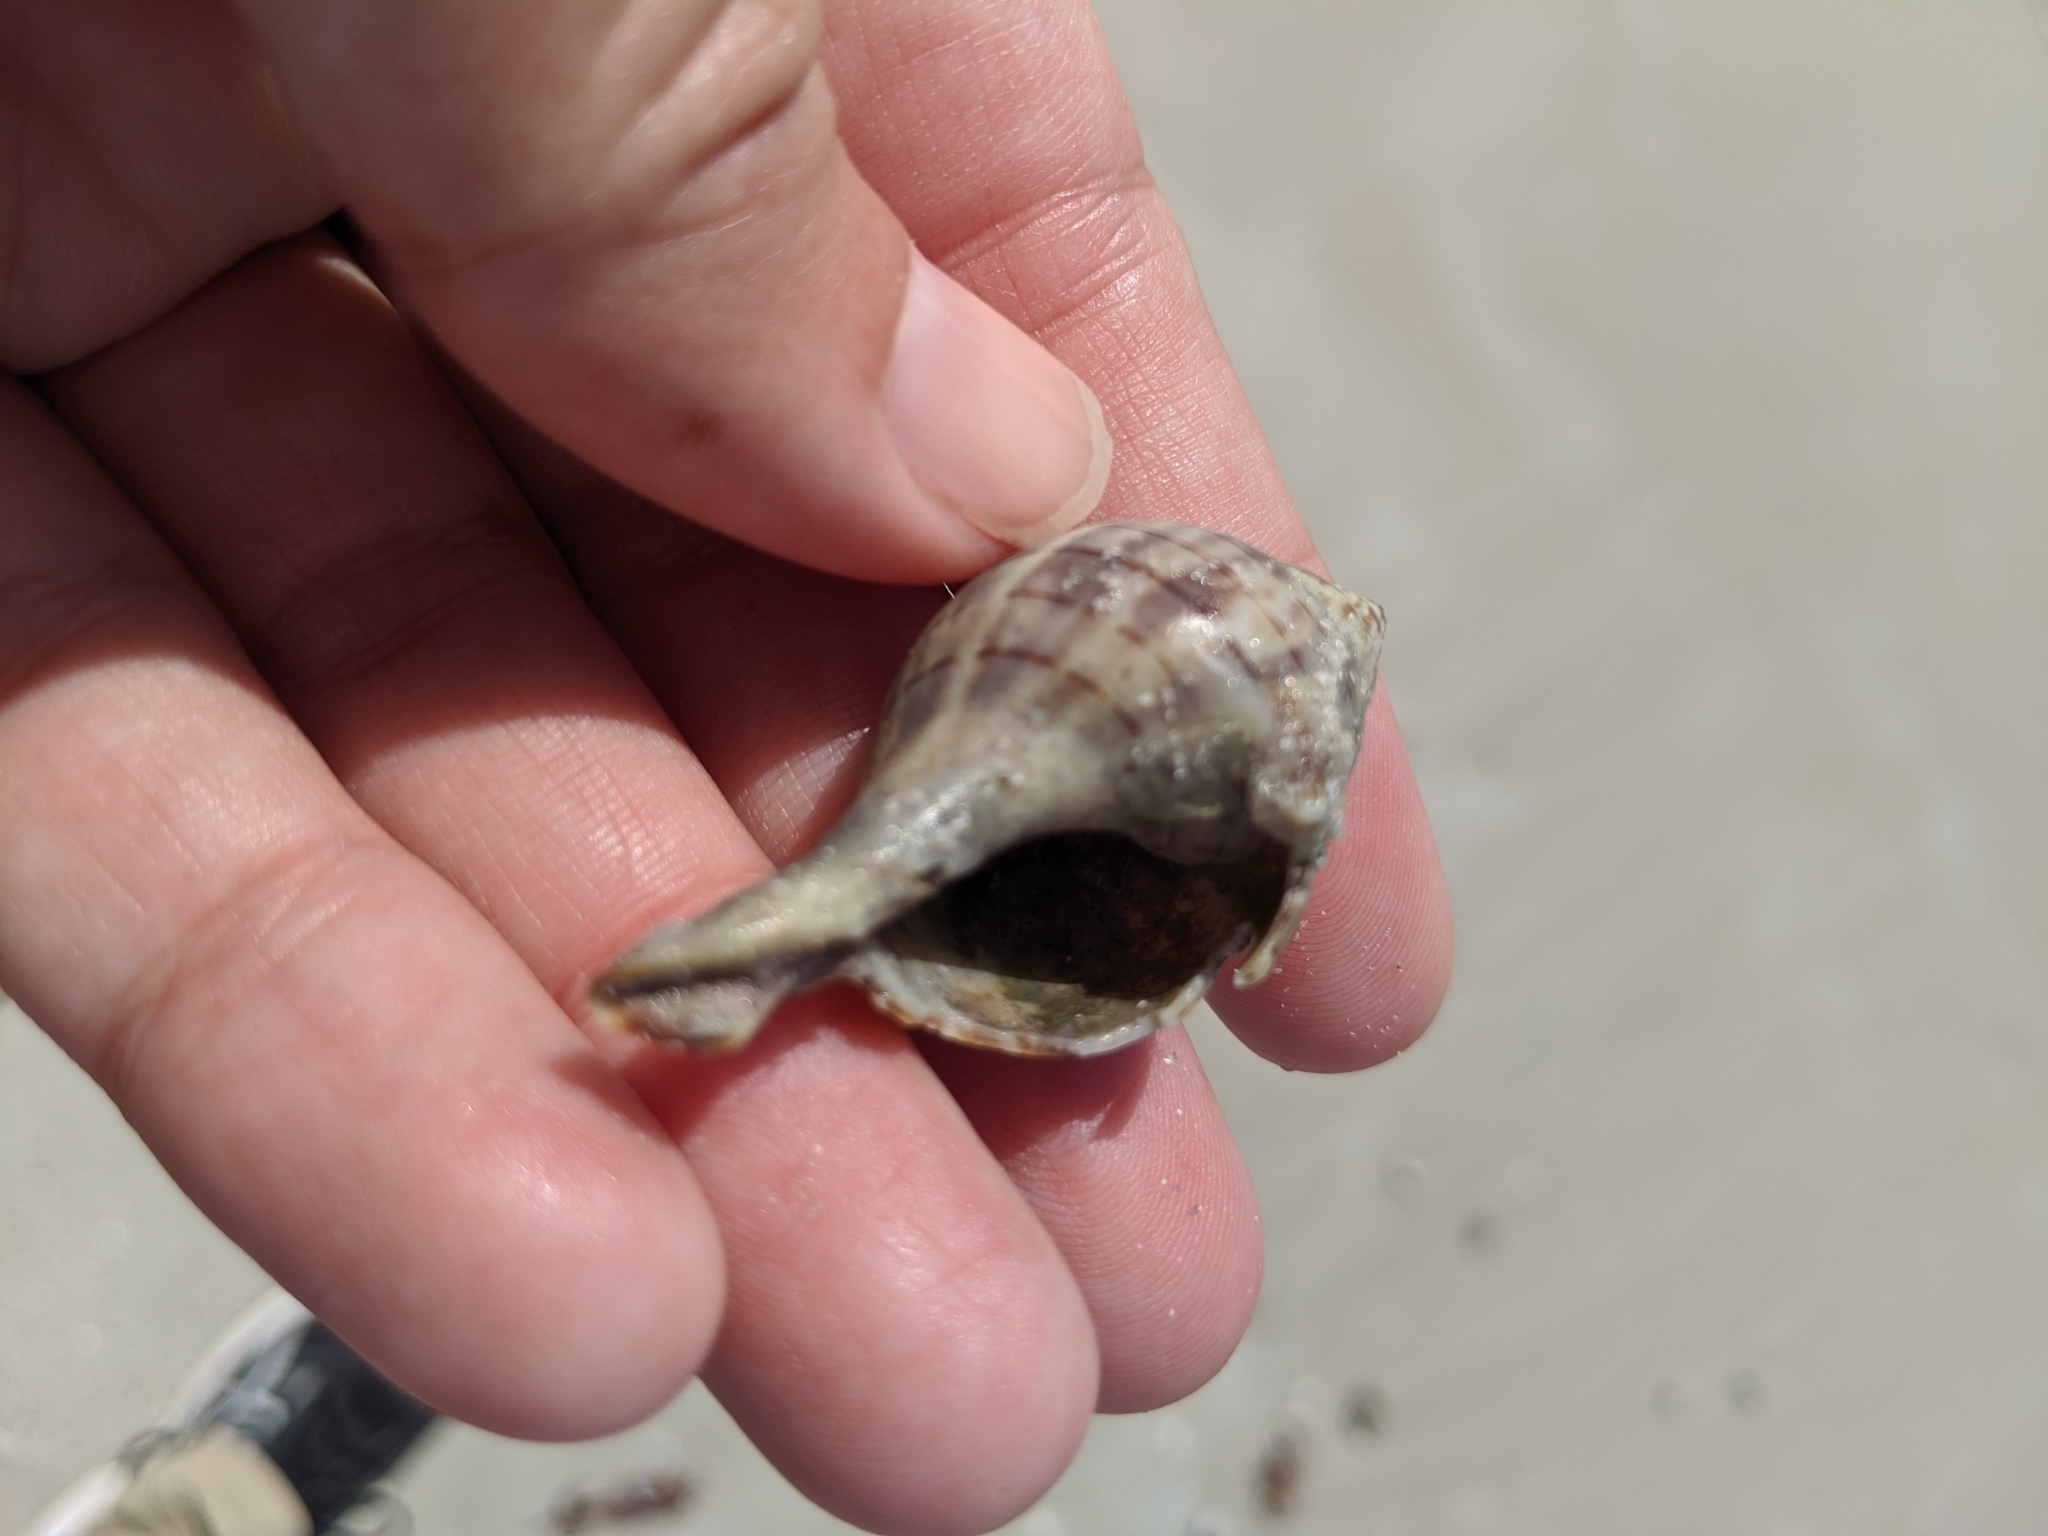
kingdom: Animalia
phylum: Mollusca
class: Gastropoda
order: Neogastropoda
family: Fasciolariidae
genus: Cinctura
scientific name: Cinctura hunteria
